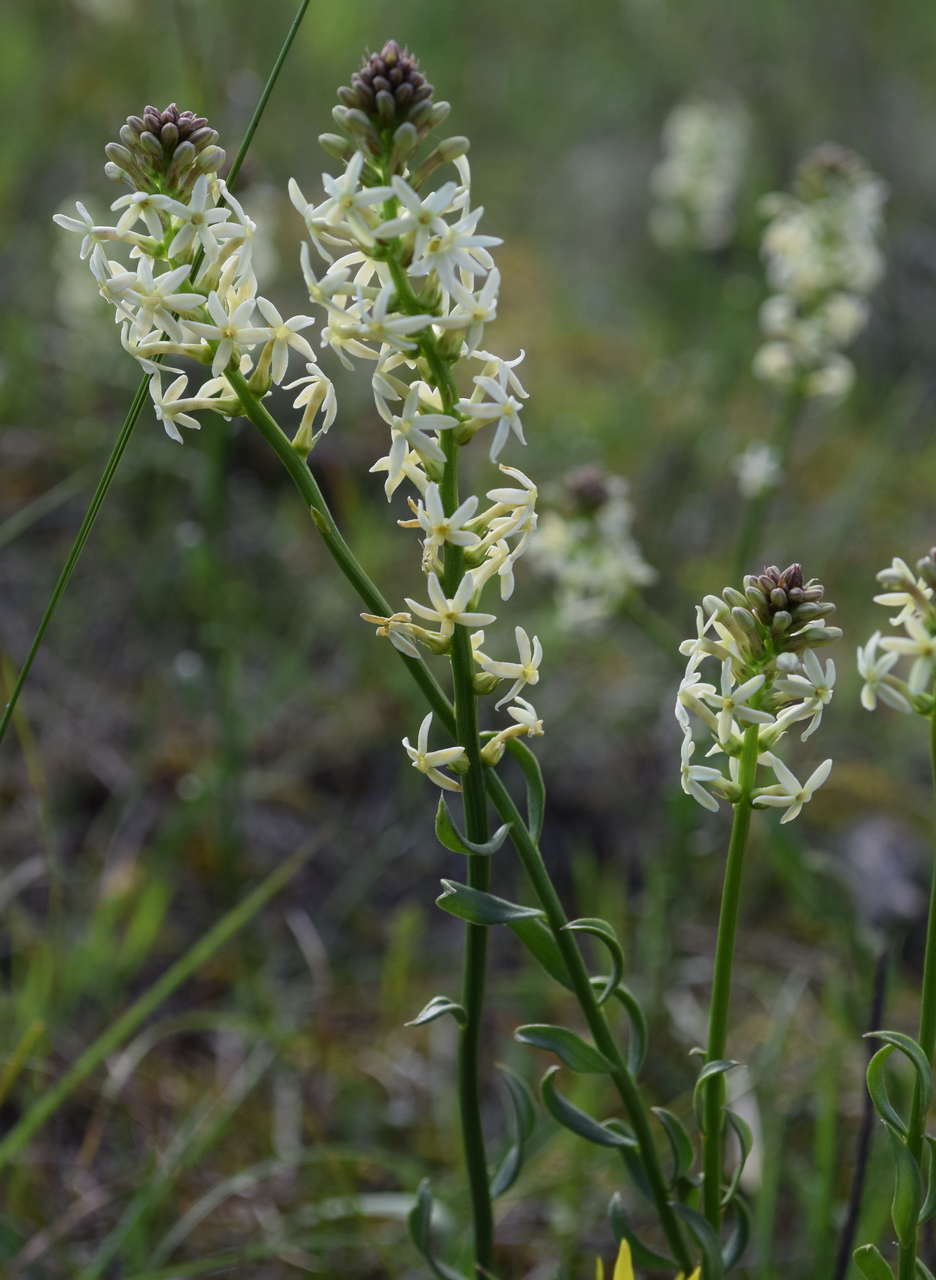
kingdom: Plantae
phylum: Tracheophyta
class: Magnoliopsida
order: Celastrales
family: Celastraceae
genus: Stackhousia
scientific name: Stackhousia monogyna
